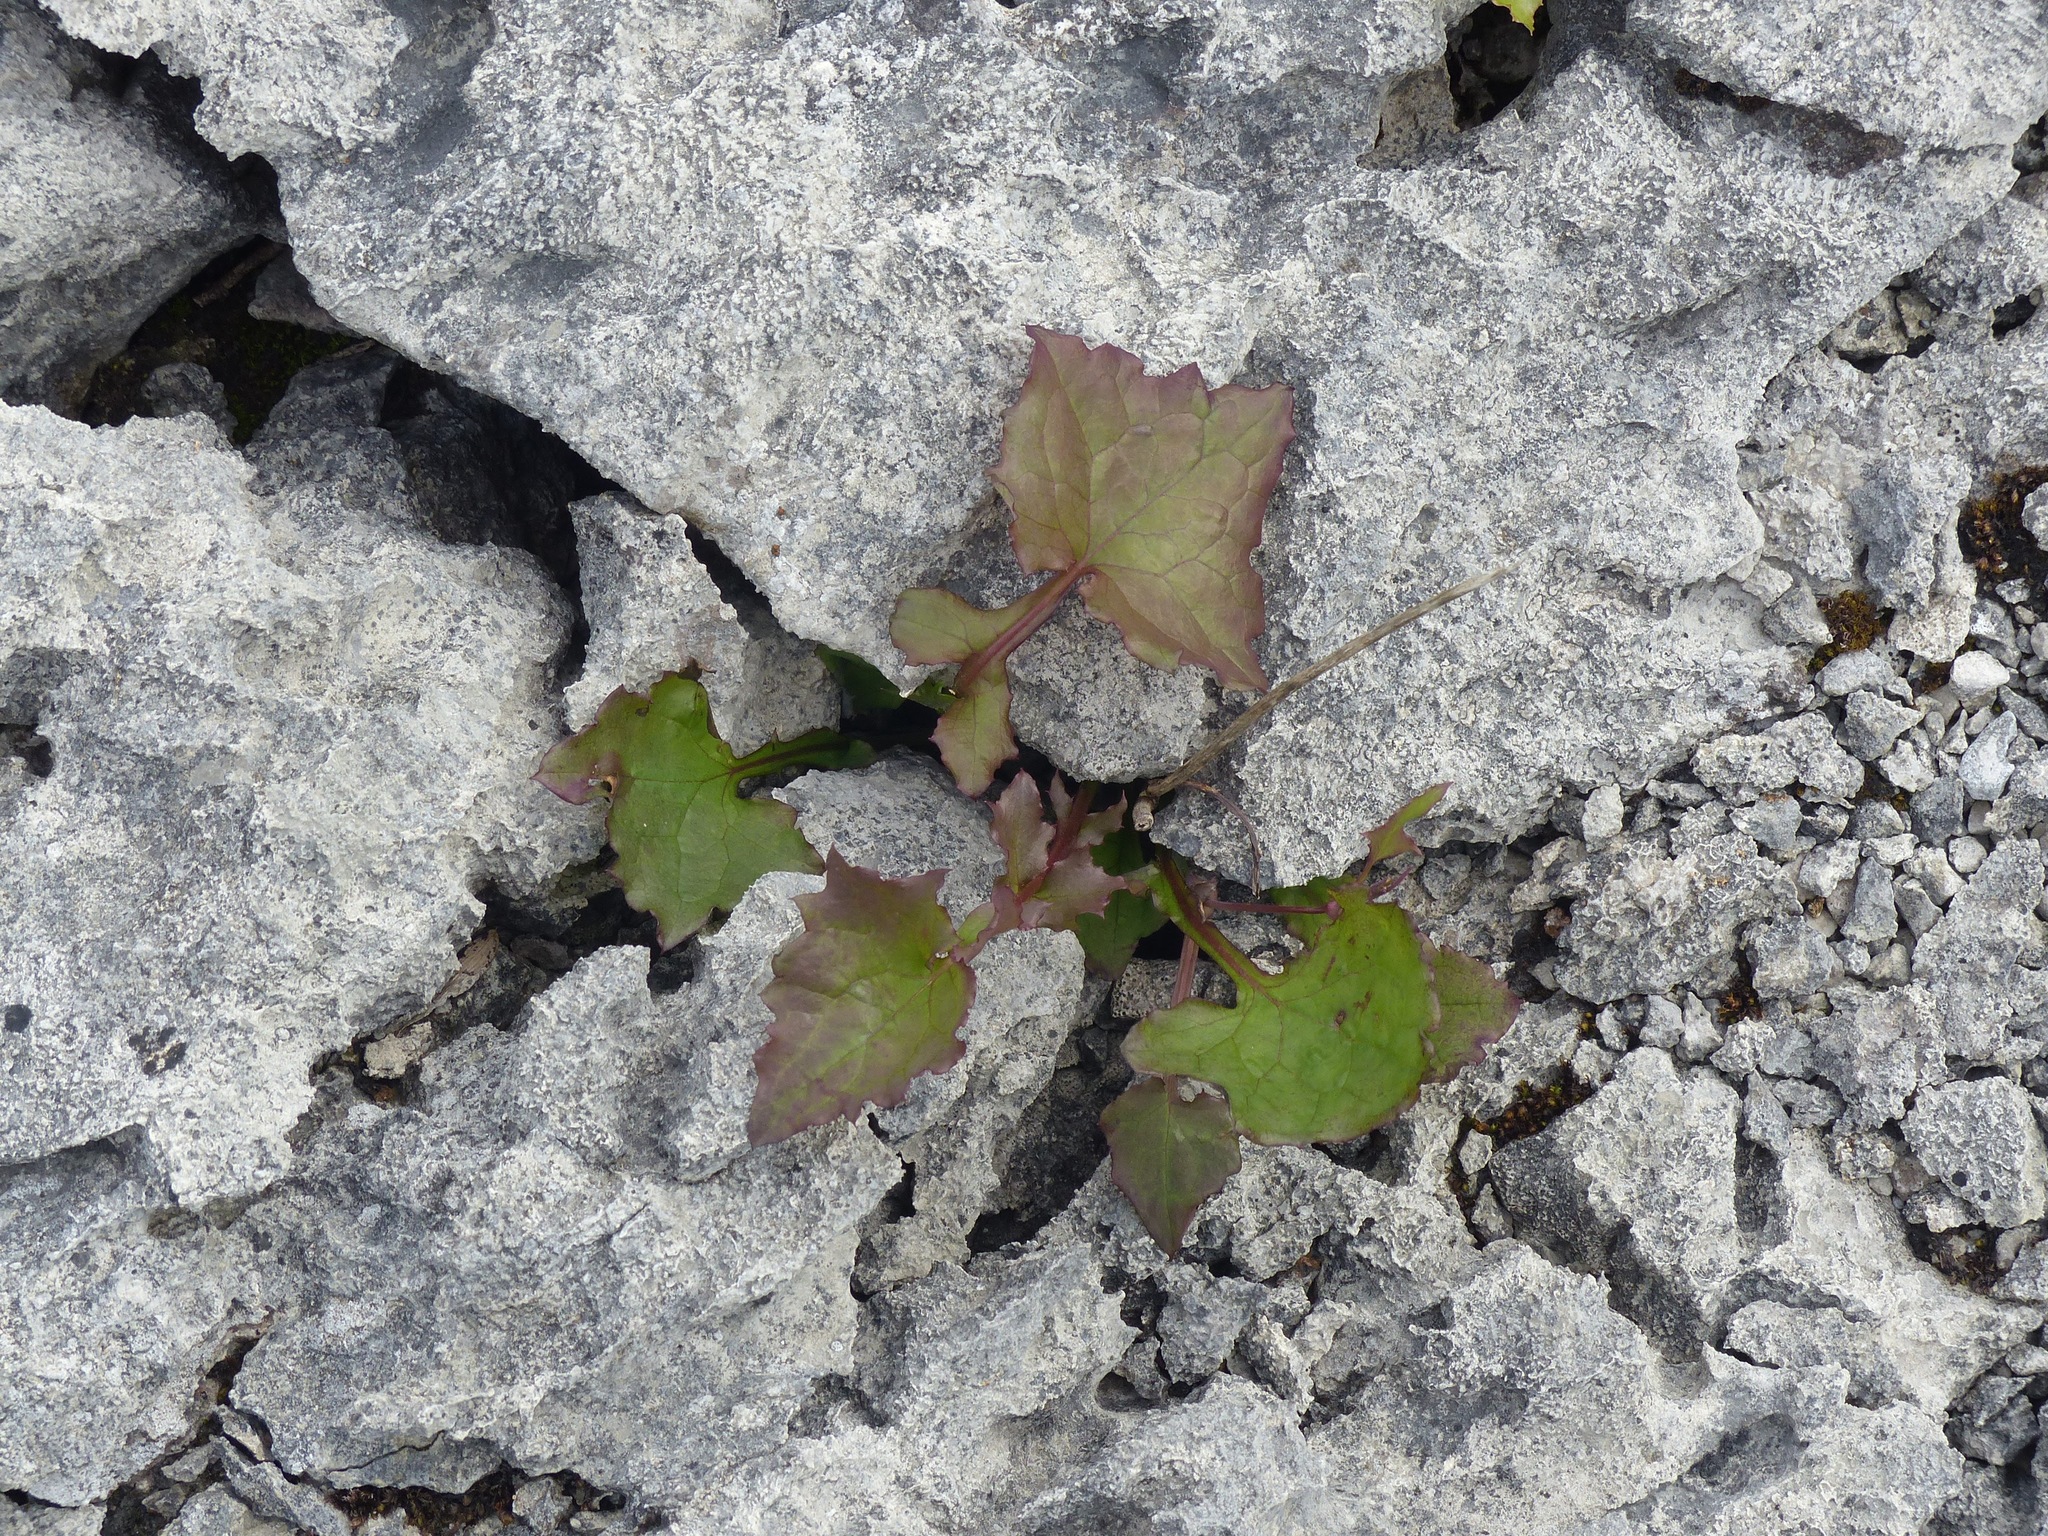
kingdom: Plantae
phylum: Tracheophyta
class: Magnoliopsida
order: Asterales
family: Asteraceae
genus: Mycelis
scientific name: Mycelis muralis
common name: Wall lettuce
